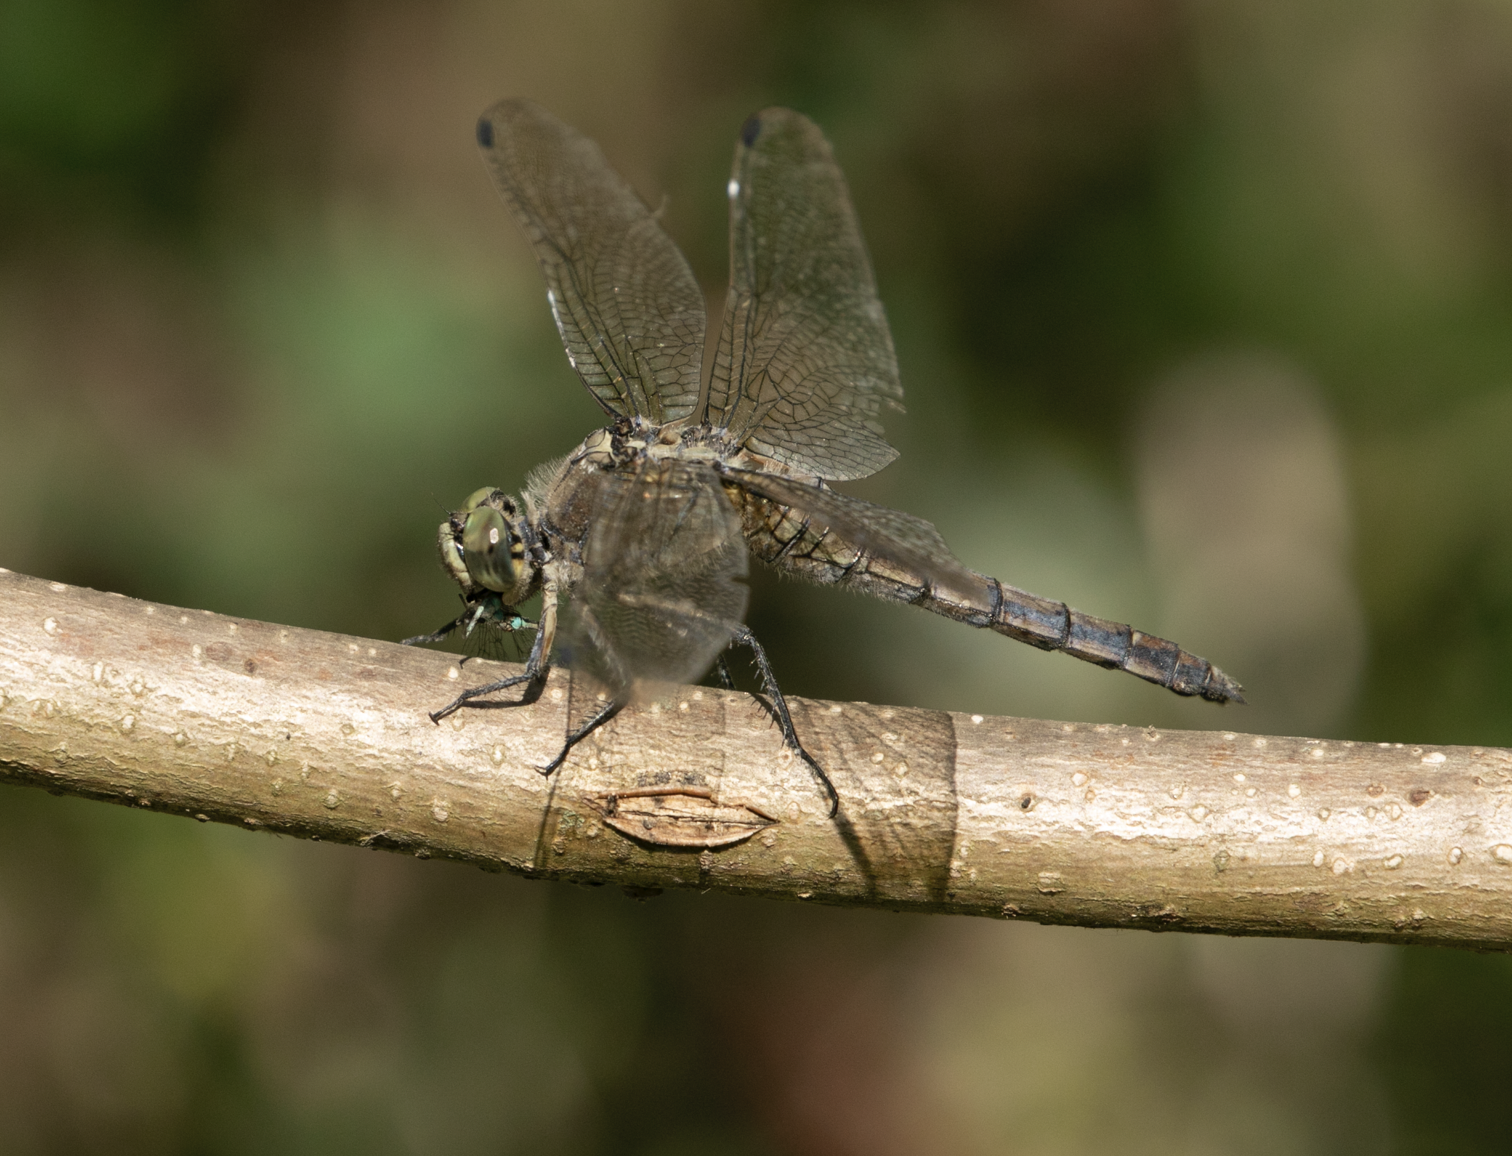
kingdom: Animalia
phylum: Arthropoda
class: Insecta
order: Odonata
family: Libellulidae
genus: Orthetrum
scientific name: Orthetrum cancellatum
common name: Black-tailed skimmer
